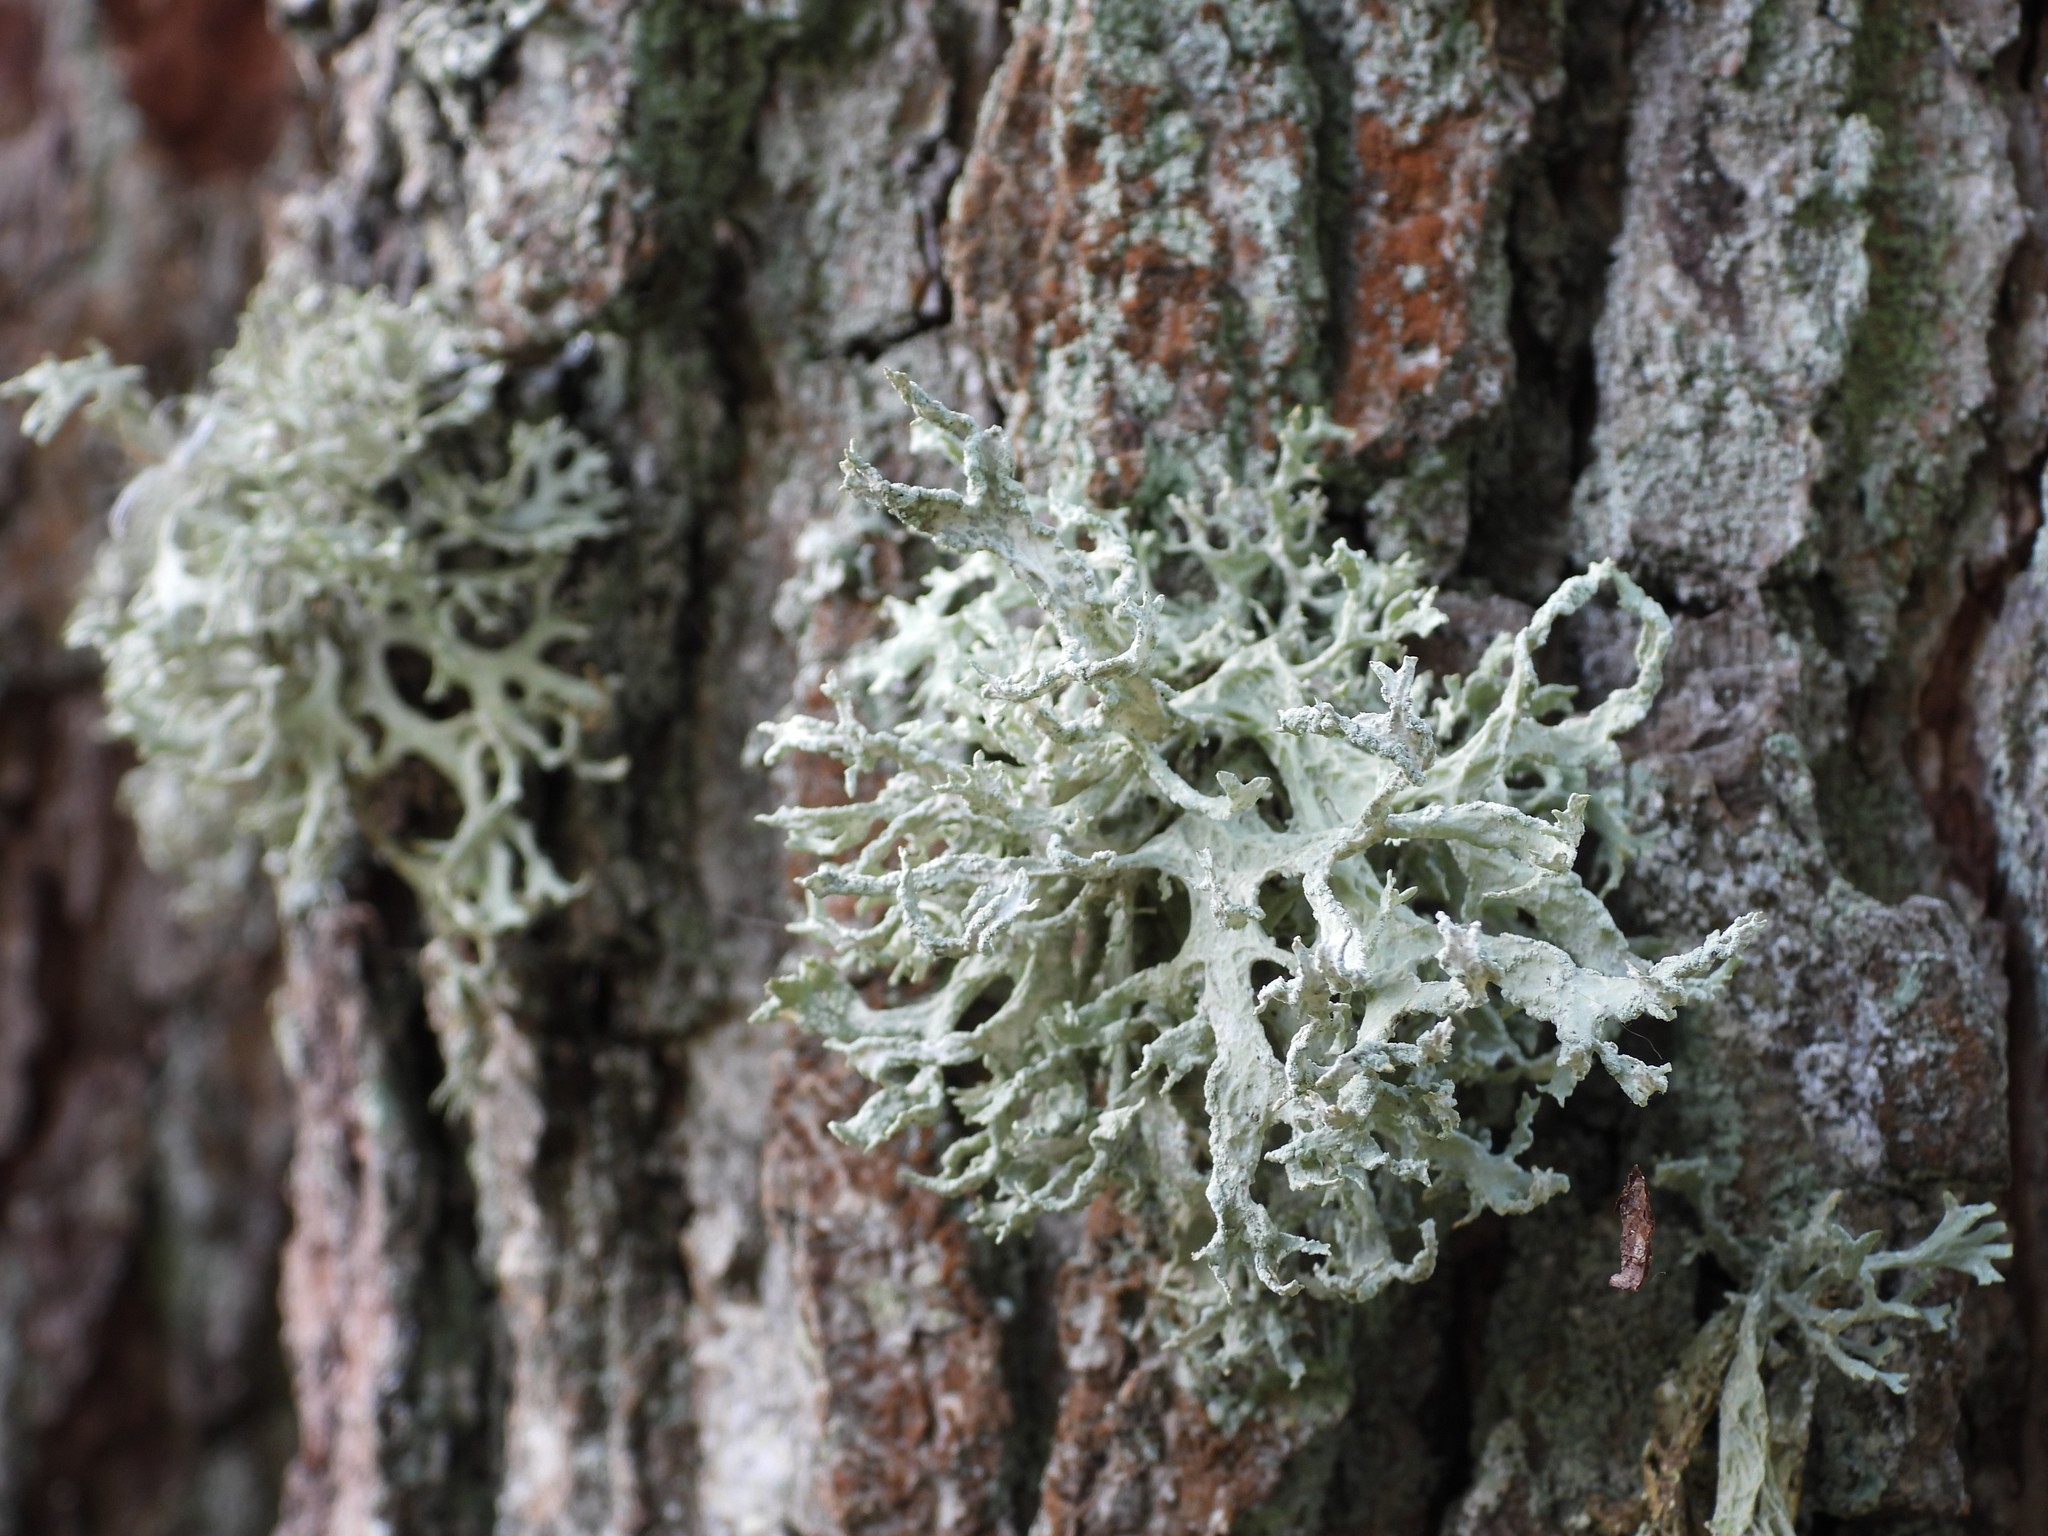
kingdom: Fungi
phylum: Ascomycota
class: Lecanoromycetes
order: Lecanorales
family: Parmeliaceae
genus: Evernia
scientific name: Evernia prunastri
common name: Oak moss
